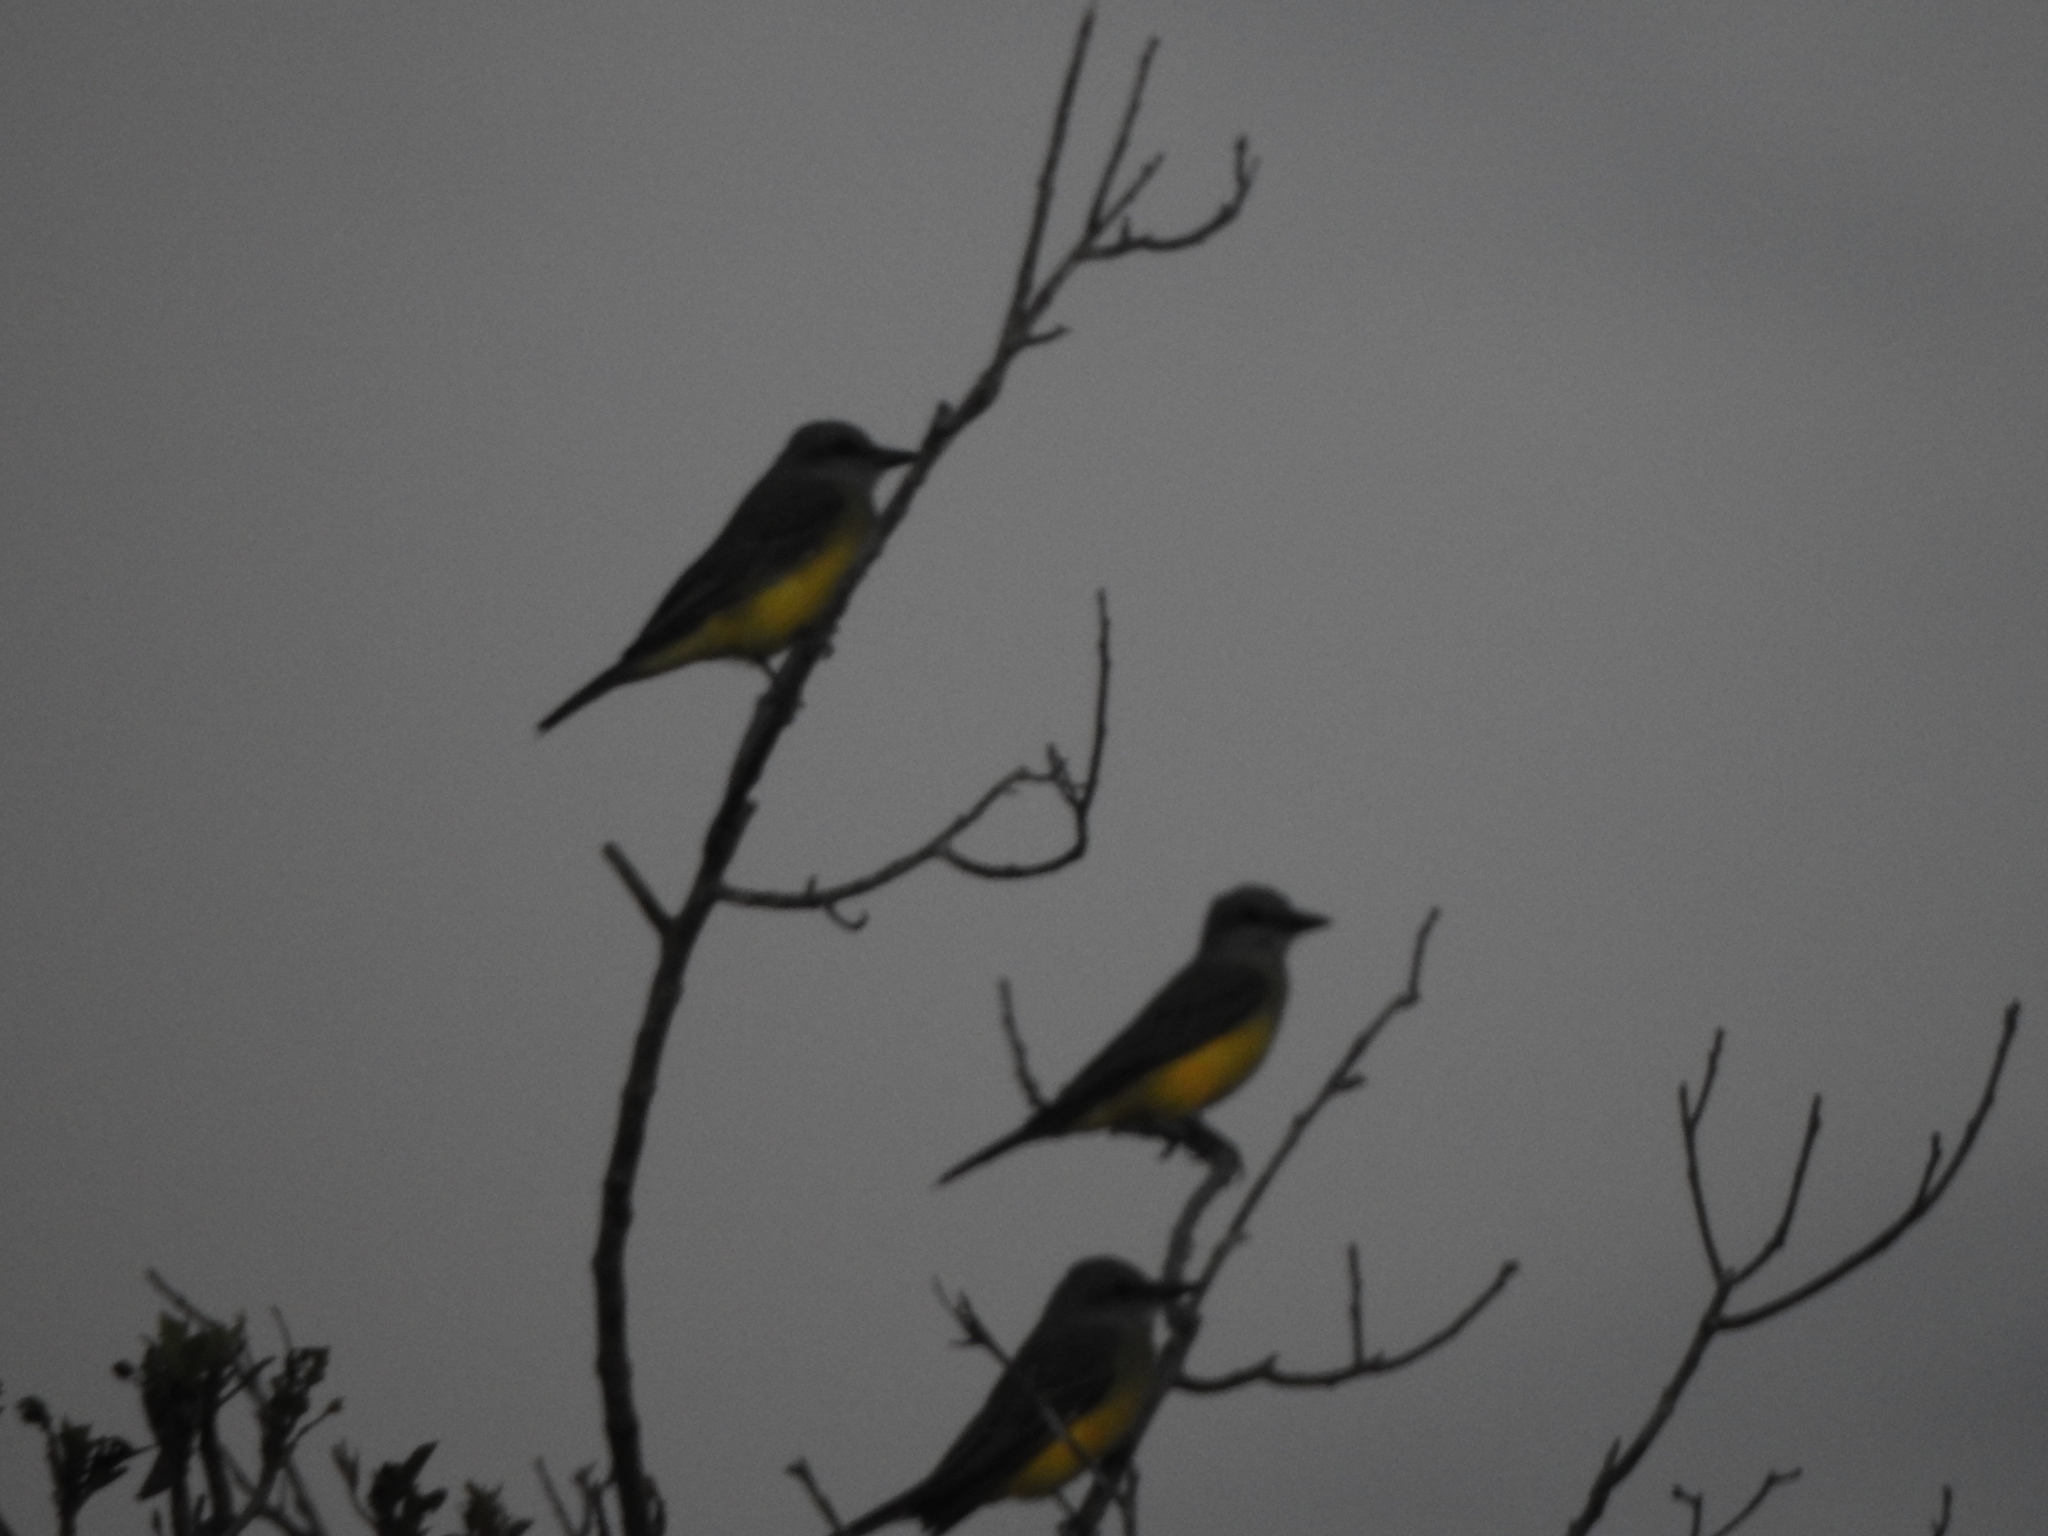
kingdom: Animalia
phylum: Chordata
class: Aves
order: Passeriformes
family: Tyrannidae
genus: Tyrannus
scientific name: Tyrannus melancholicus
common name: Tropical kingbird
